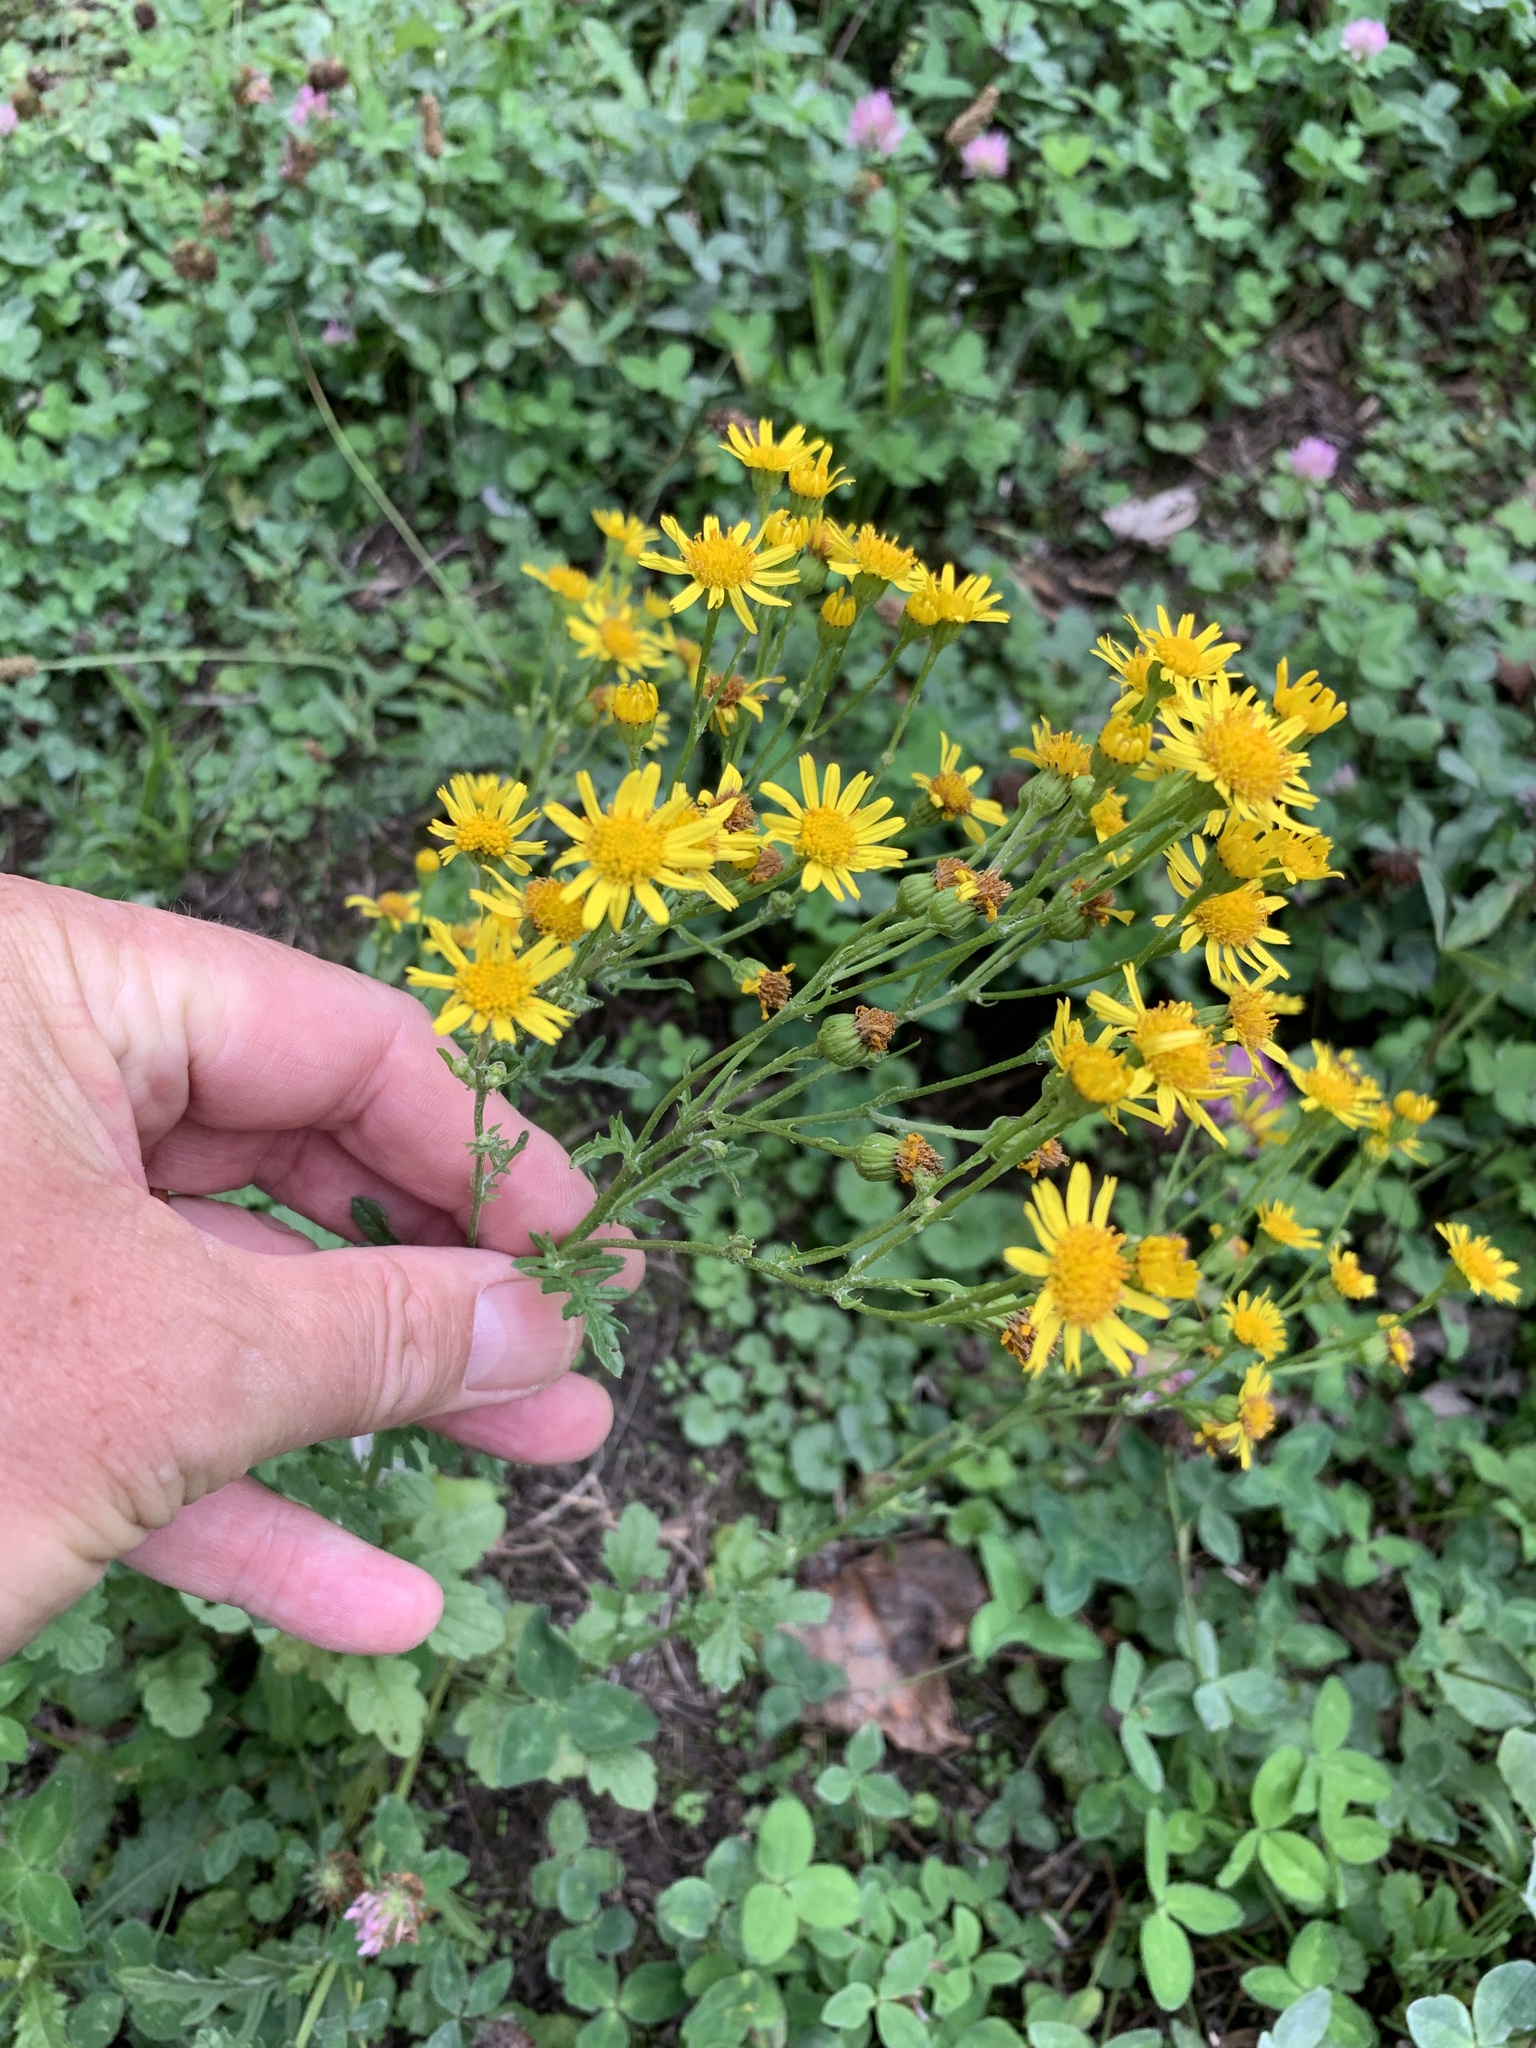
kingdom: Plantae
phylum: Tracheophyta
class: Magnoliopsida
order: Asterales
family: Asteraceae
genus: Jacobaea
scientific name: Jacobaea vulgaris
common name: Stinking willie
